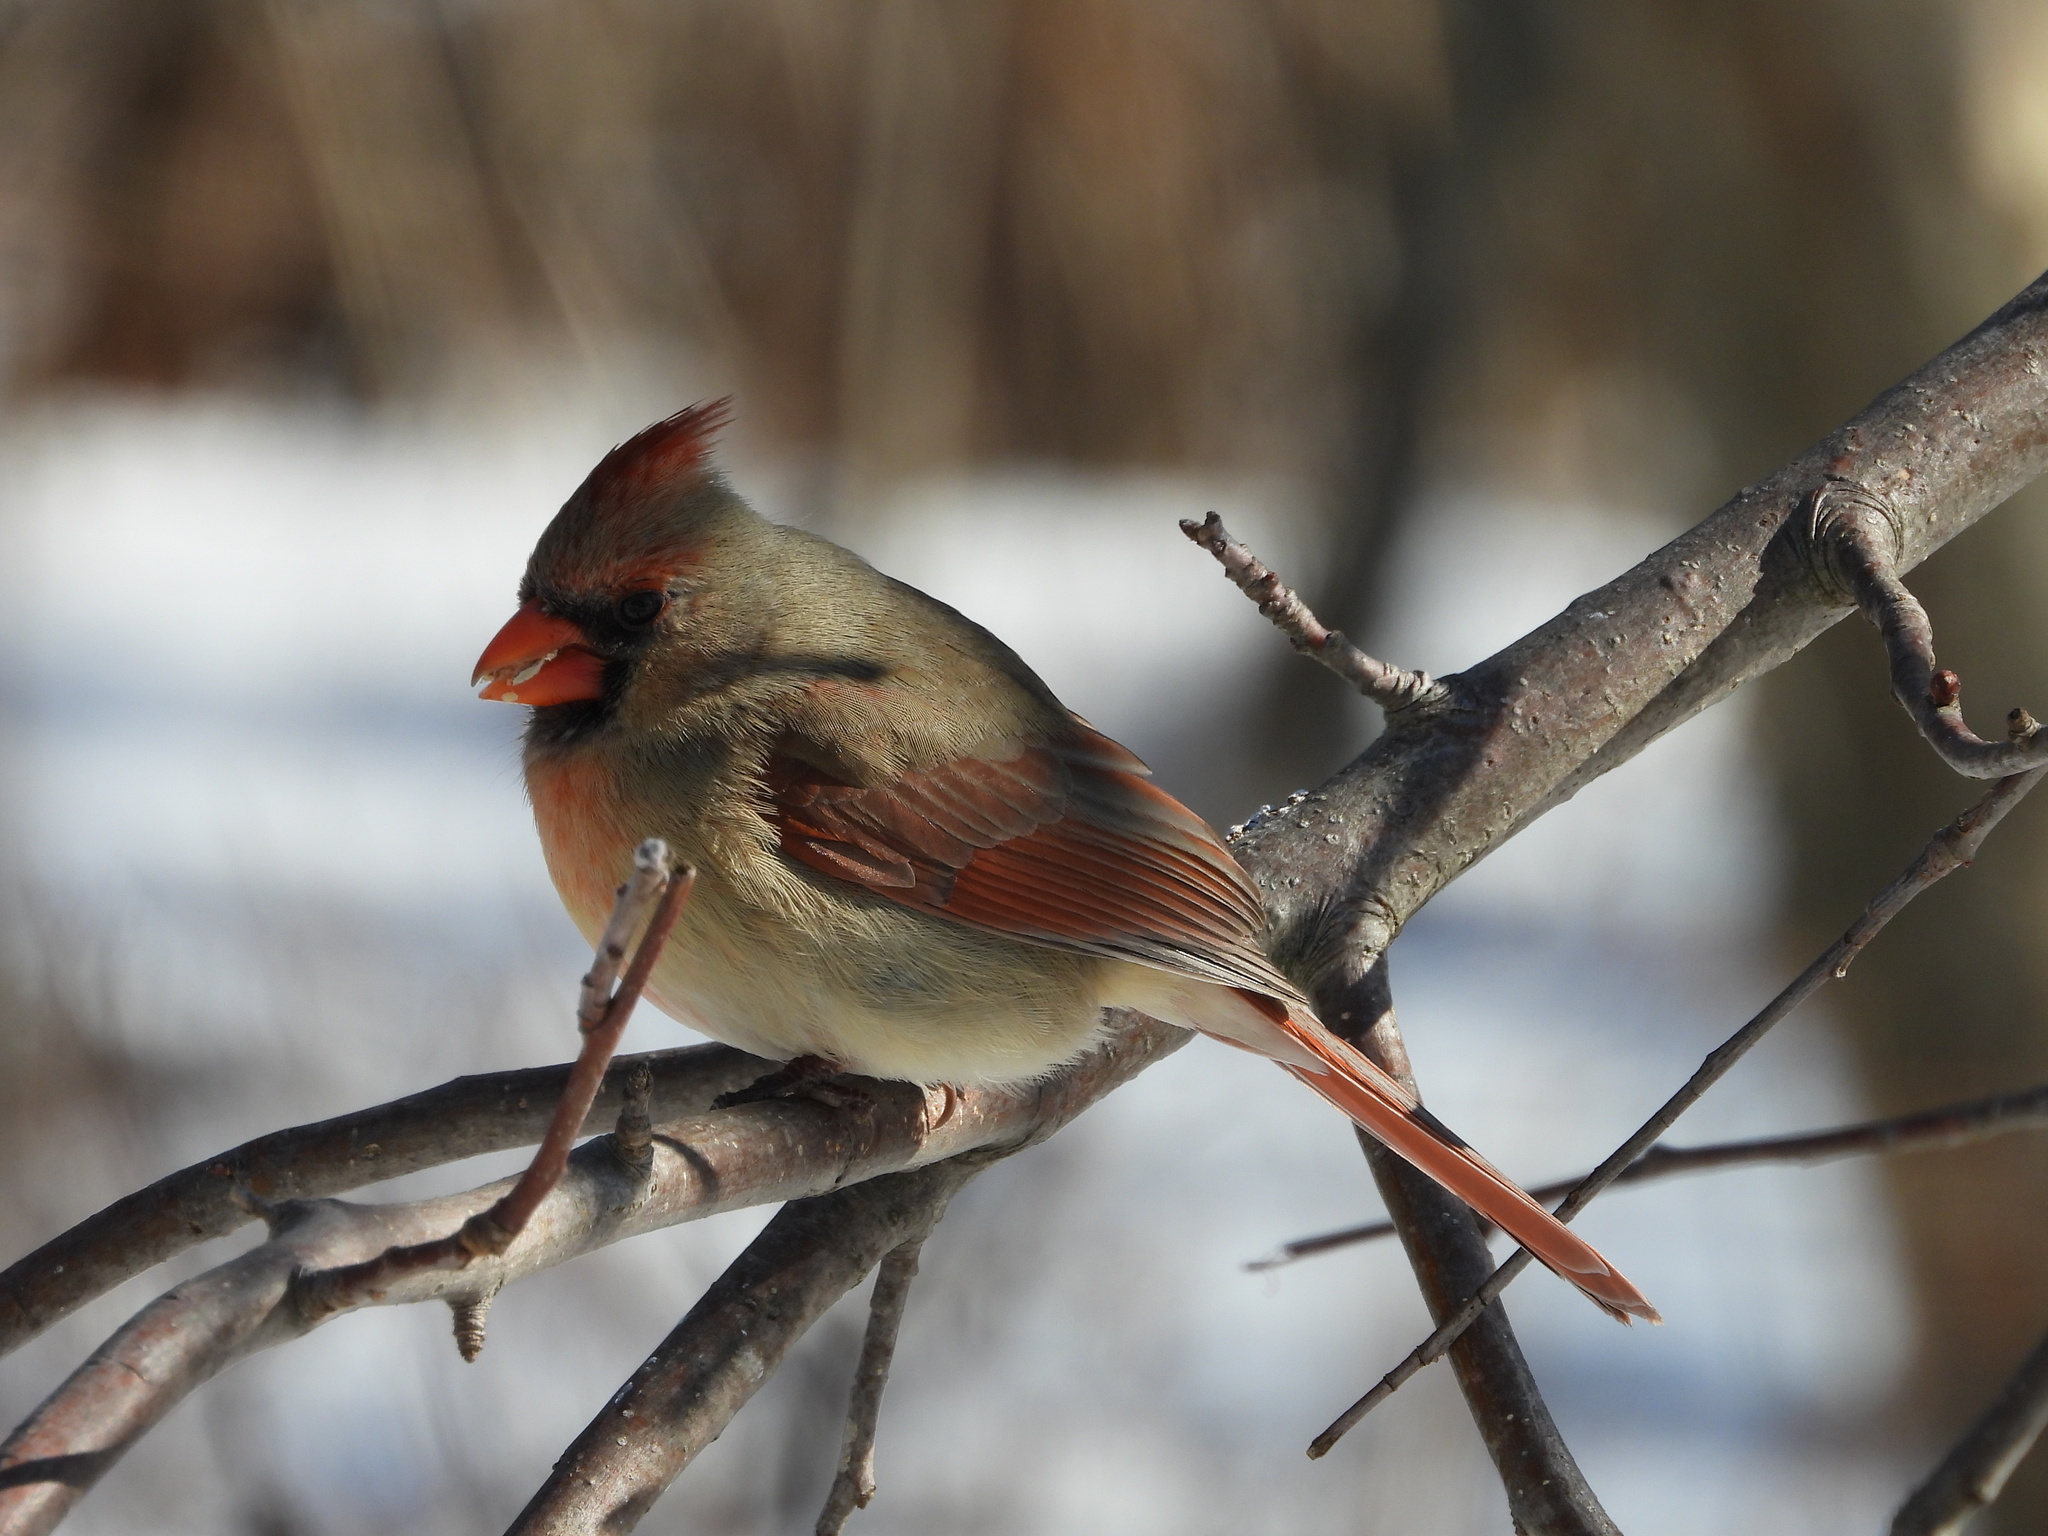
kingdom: Animalia
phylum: Chordata
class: Aves
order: Passeriformes
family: Cardinalidae
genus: Cardinalis
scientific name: Cardinalis cardinalis
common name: Northern cardinal
